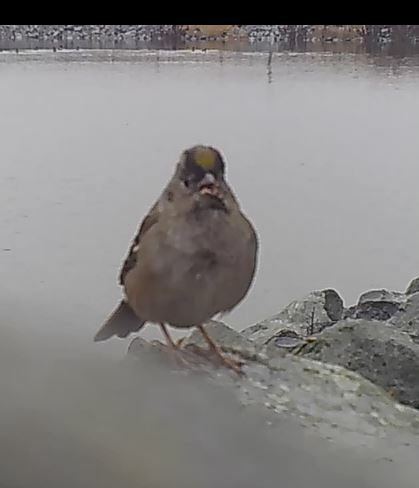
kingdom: Animalia
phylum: Chordata
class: Aves
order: Passeriformes
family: Passerellidae
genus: Zonotrichia
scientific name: Zonotrichia atricapilla
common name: Golden-crowned sparrow
